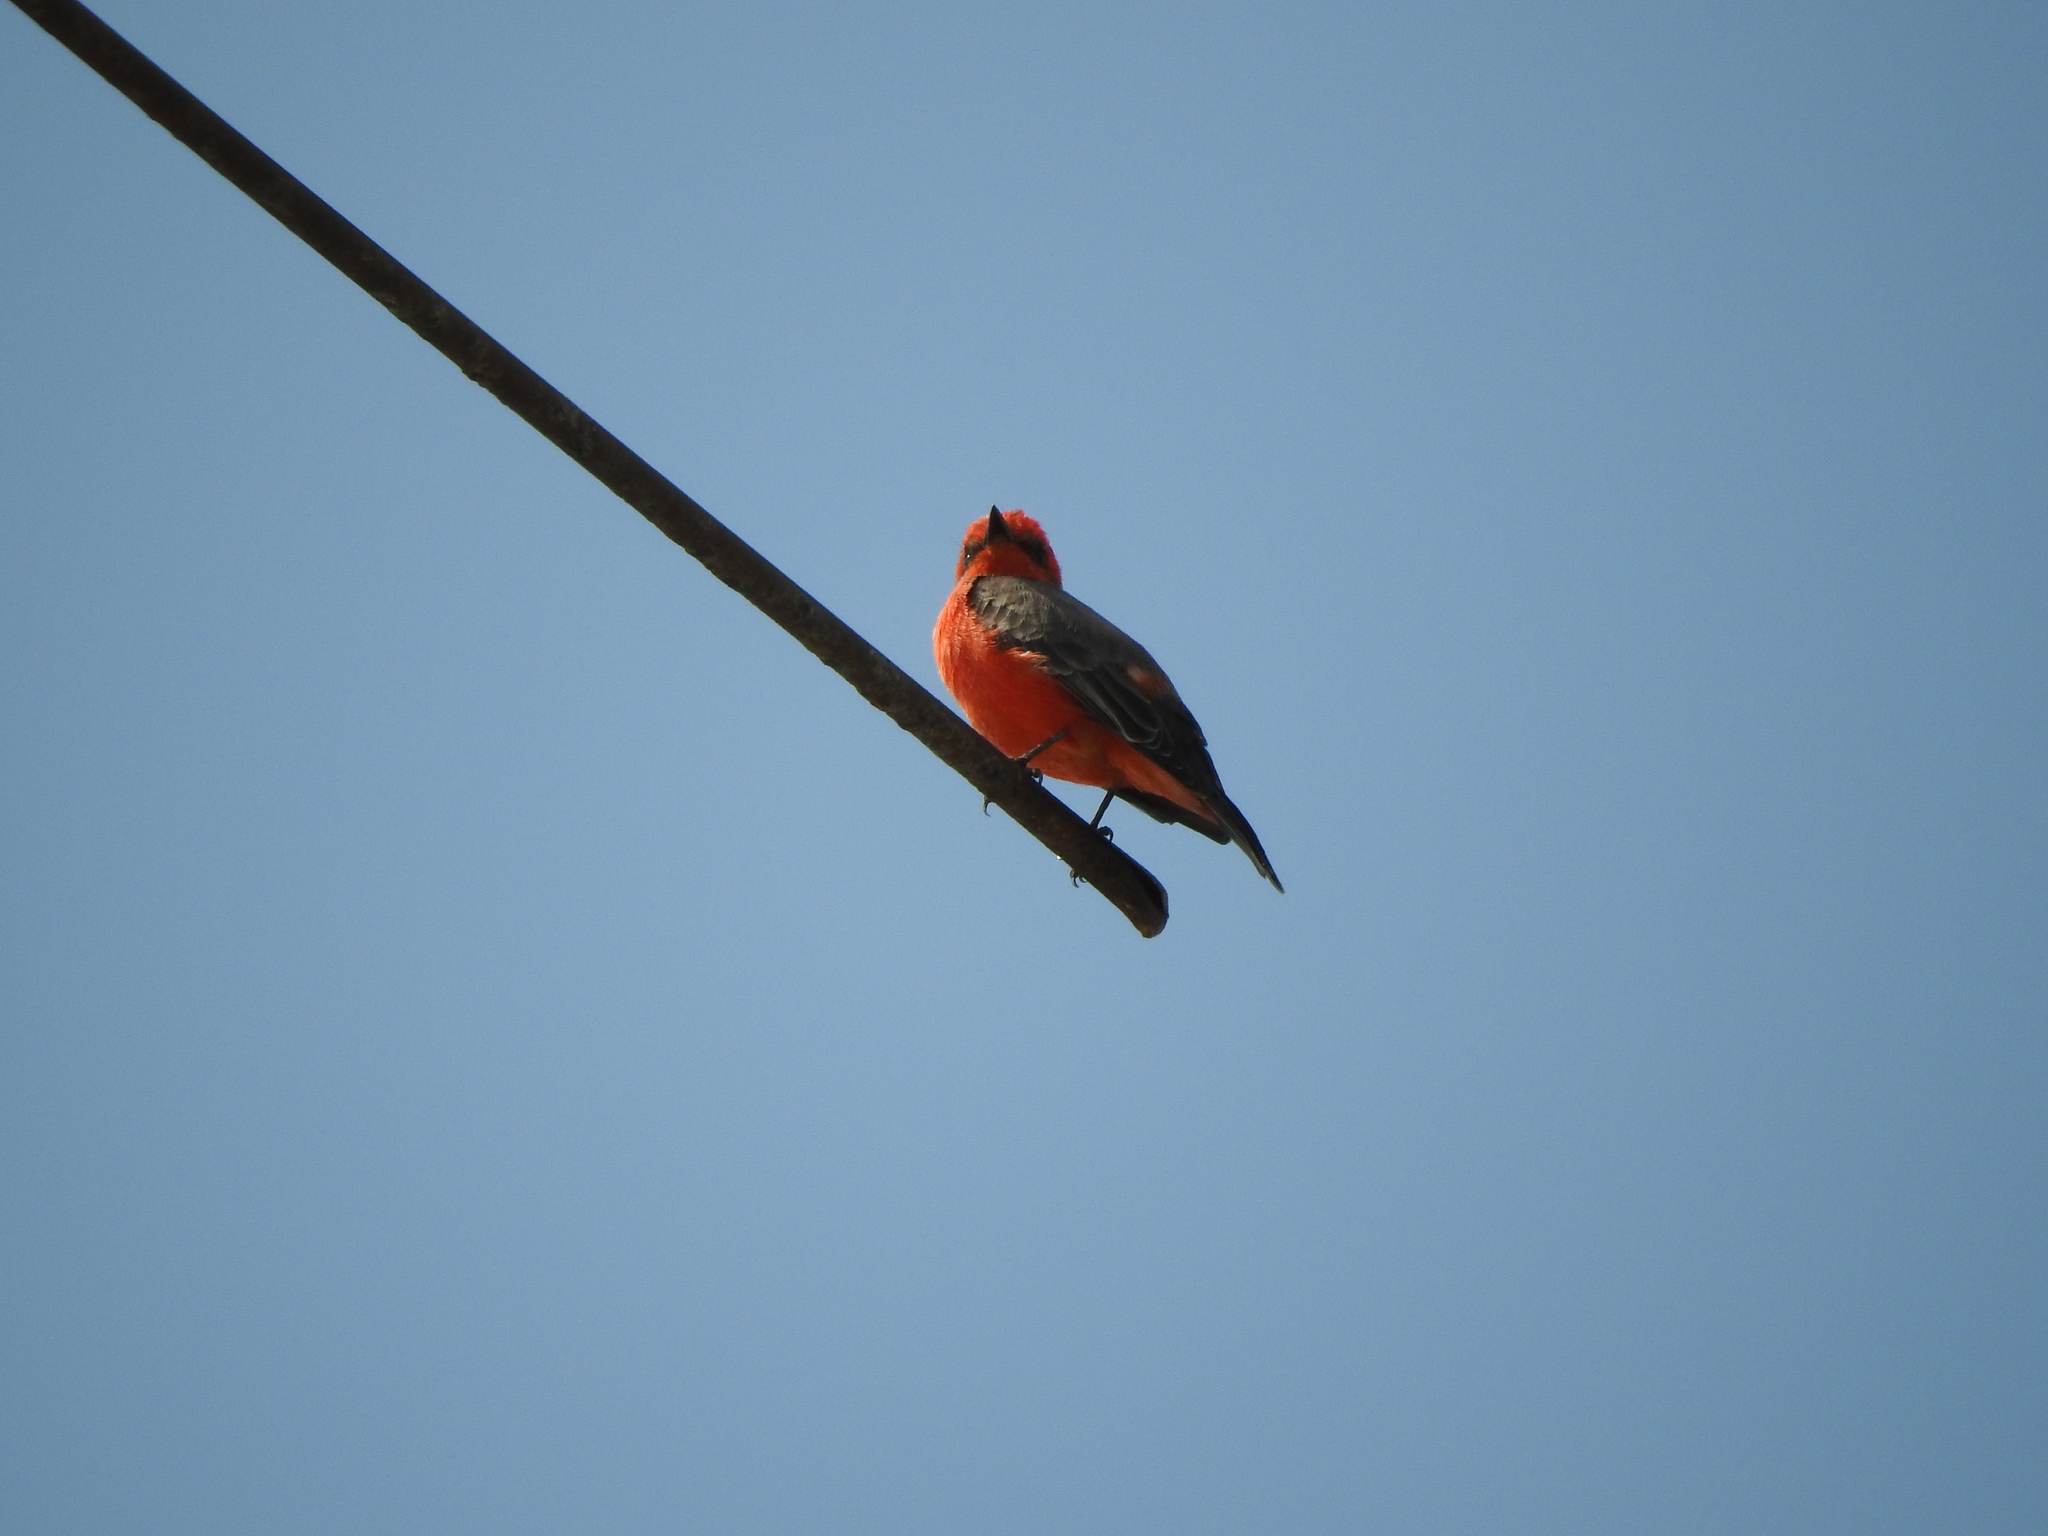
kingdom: Animalia
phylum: Chordata
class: Aves
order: Passeriformes
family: Tyrannidae
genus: Pyrocephalus
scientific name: Pyrocephalus rubinus
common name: Vermilion flycatcher
